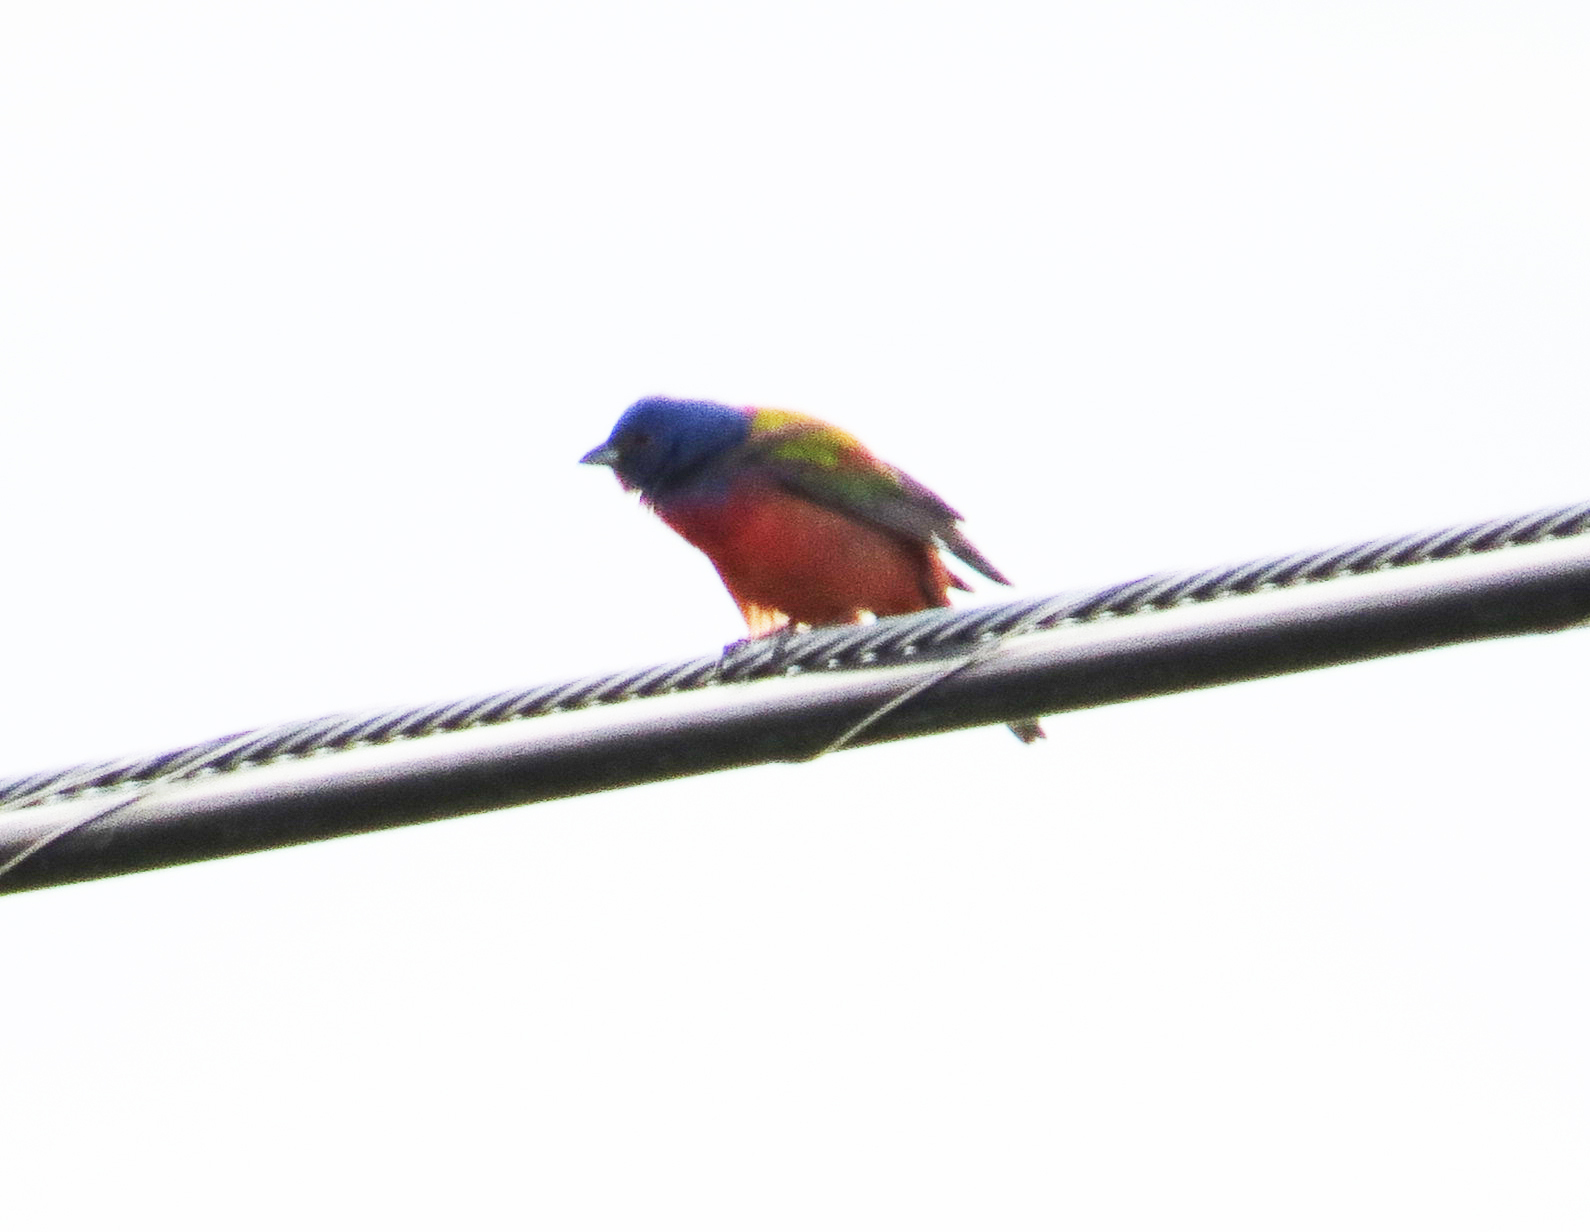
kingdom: Animalia
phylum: Chordata
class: Aves
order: Passeriformes
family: Cardinalidae
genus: Passerina
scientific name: Passerina ciris
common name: Painted bunting
